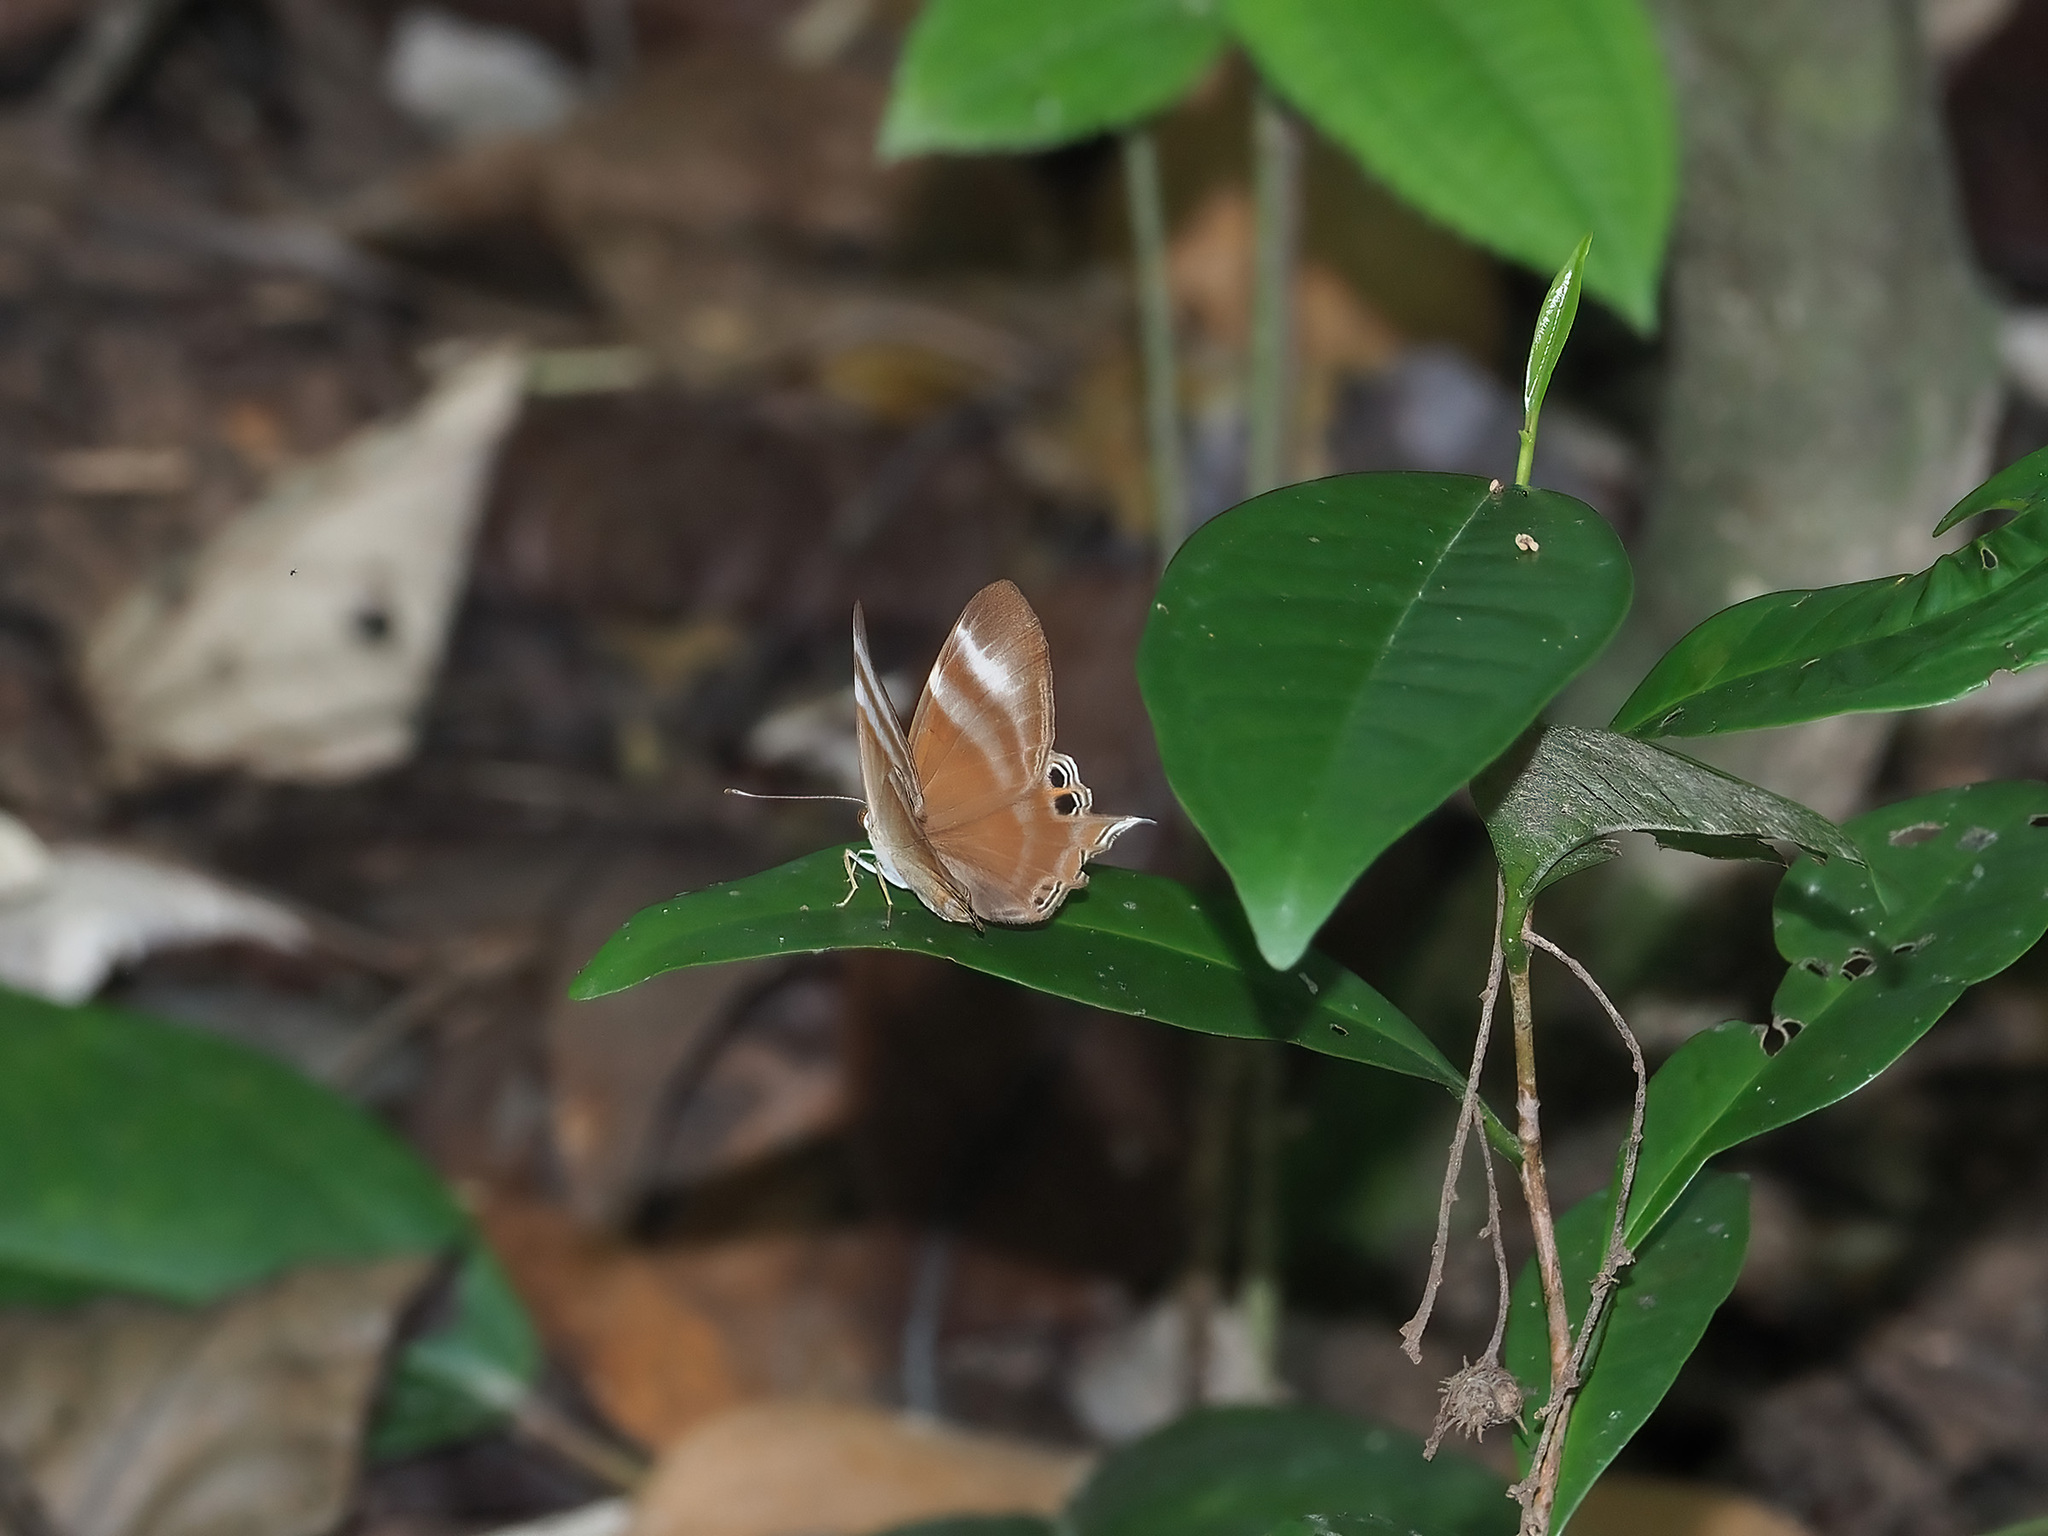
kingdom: Animalia
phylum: Arthropoda
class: Insecta
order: Lepidoptera
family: Lycaenidae
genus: Abisara
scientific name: Abisara savitri
